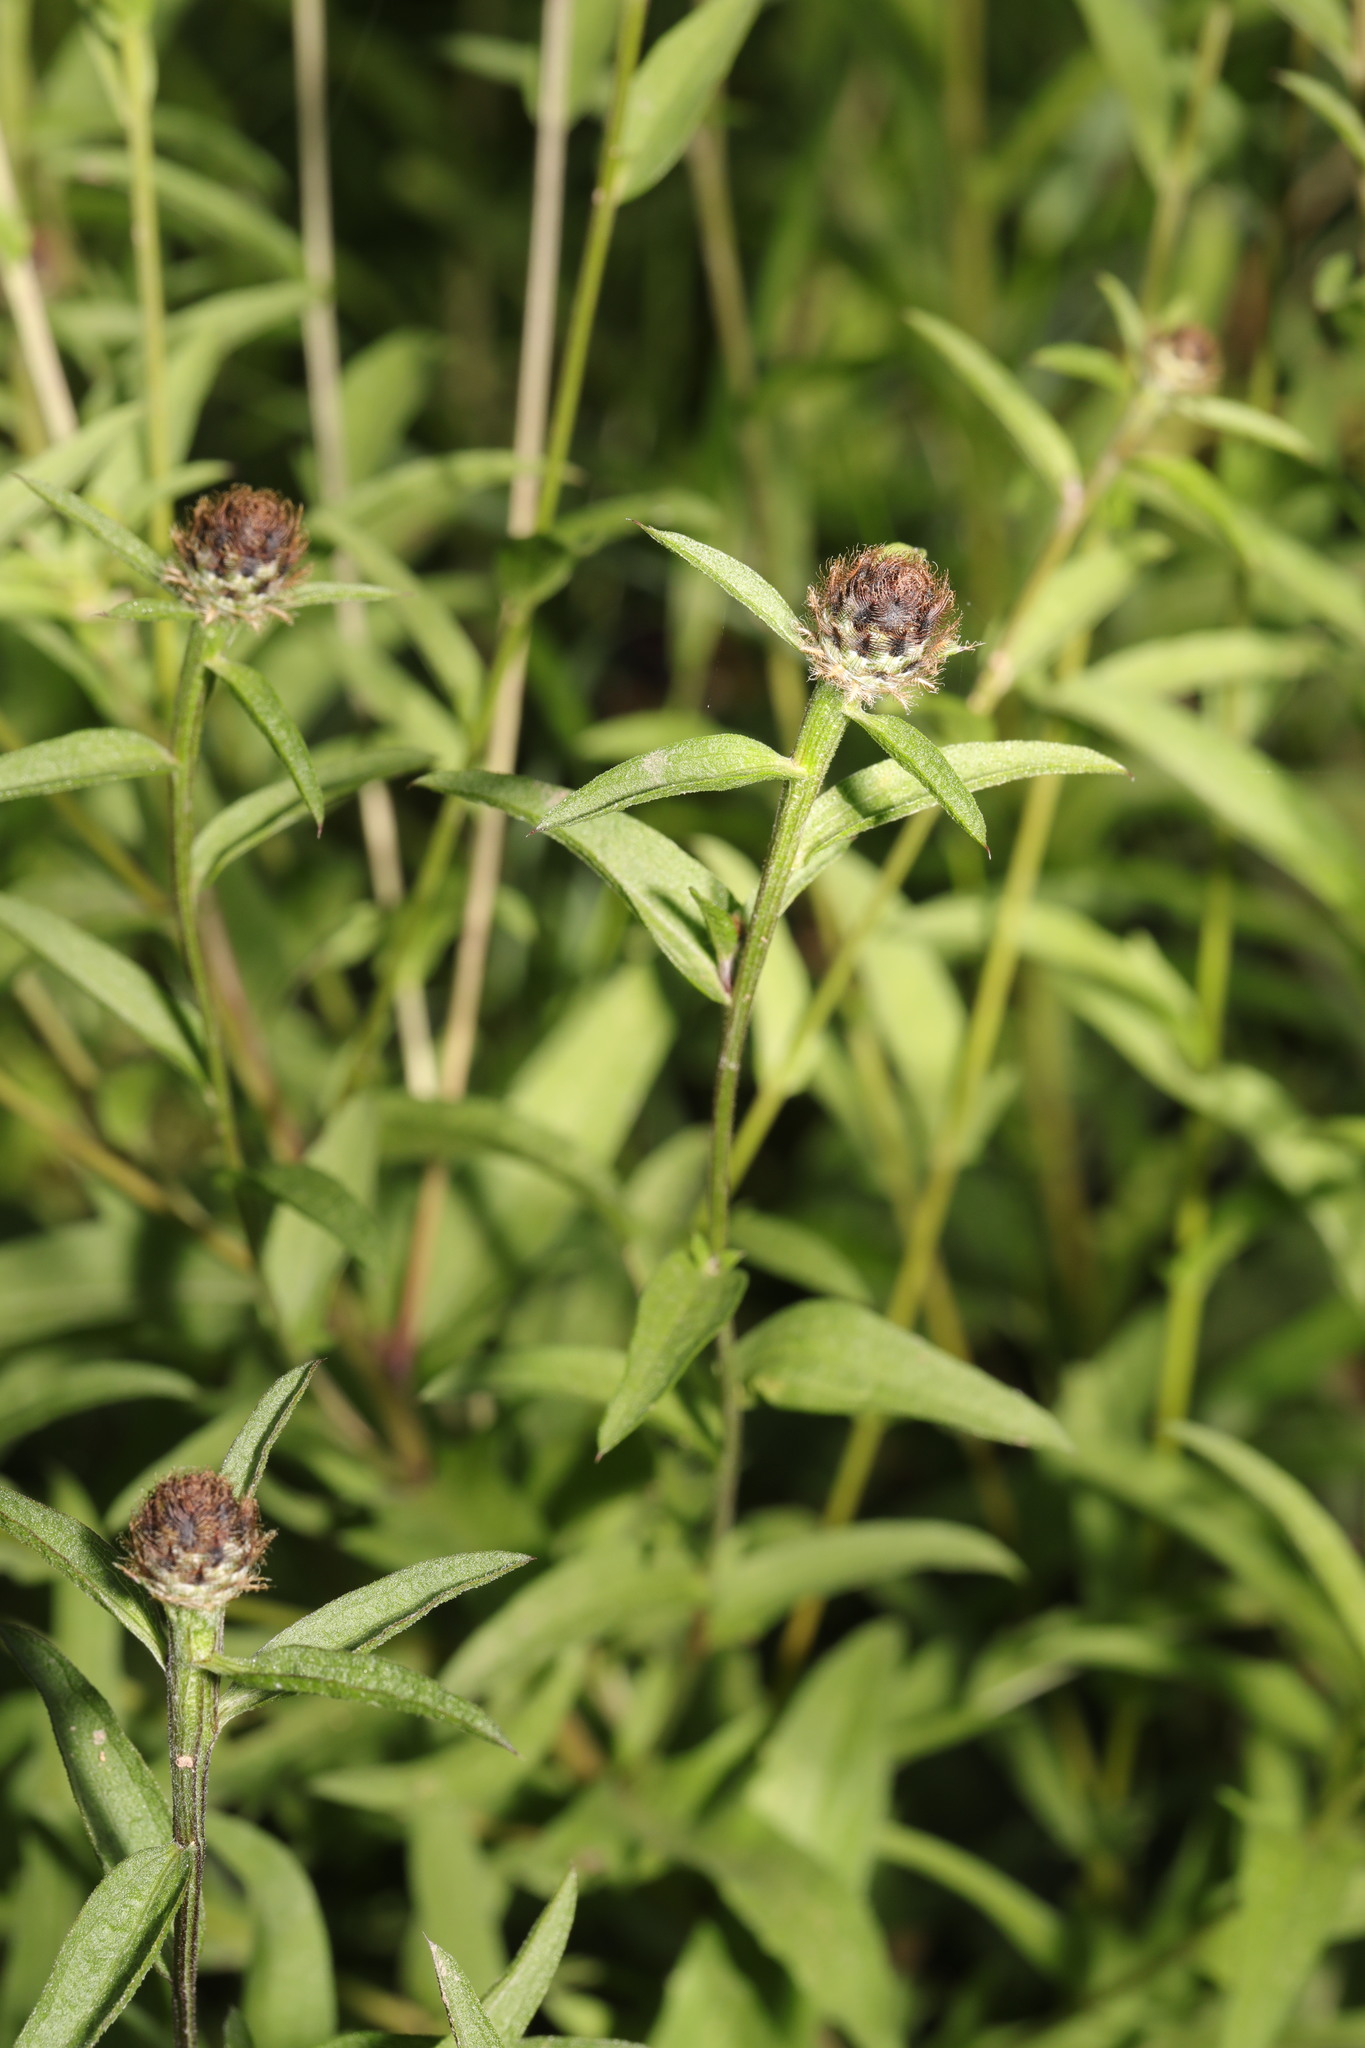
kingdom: Plantae
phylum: Tracheophyta
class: Magnoliopsida
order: Asterales
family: Asteraceae
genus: Centaurea
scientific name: Centaurea nigra
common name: Lesser knapweed
